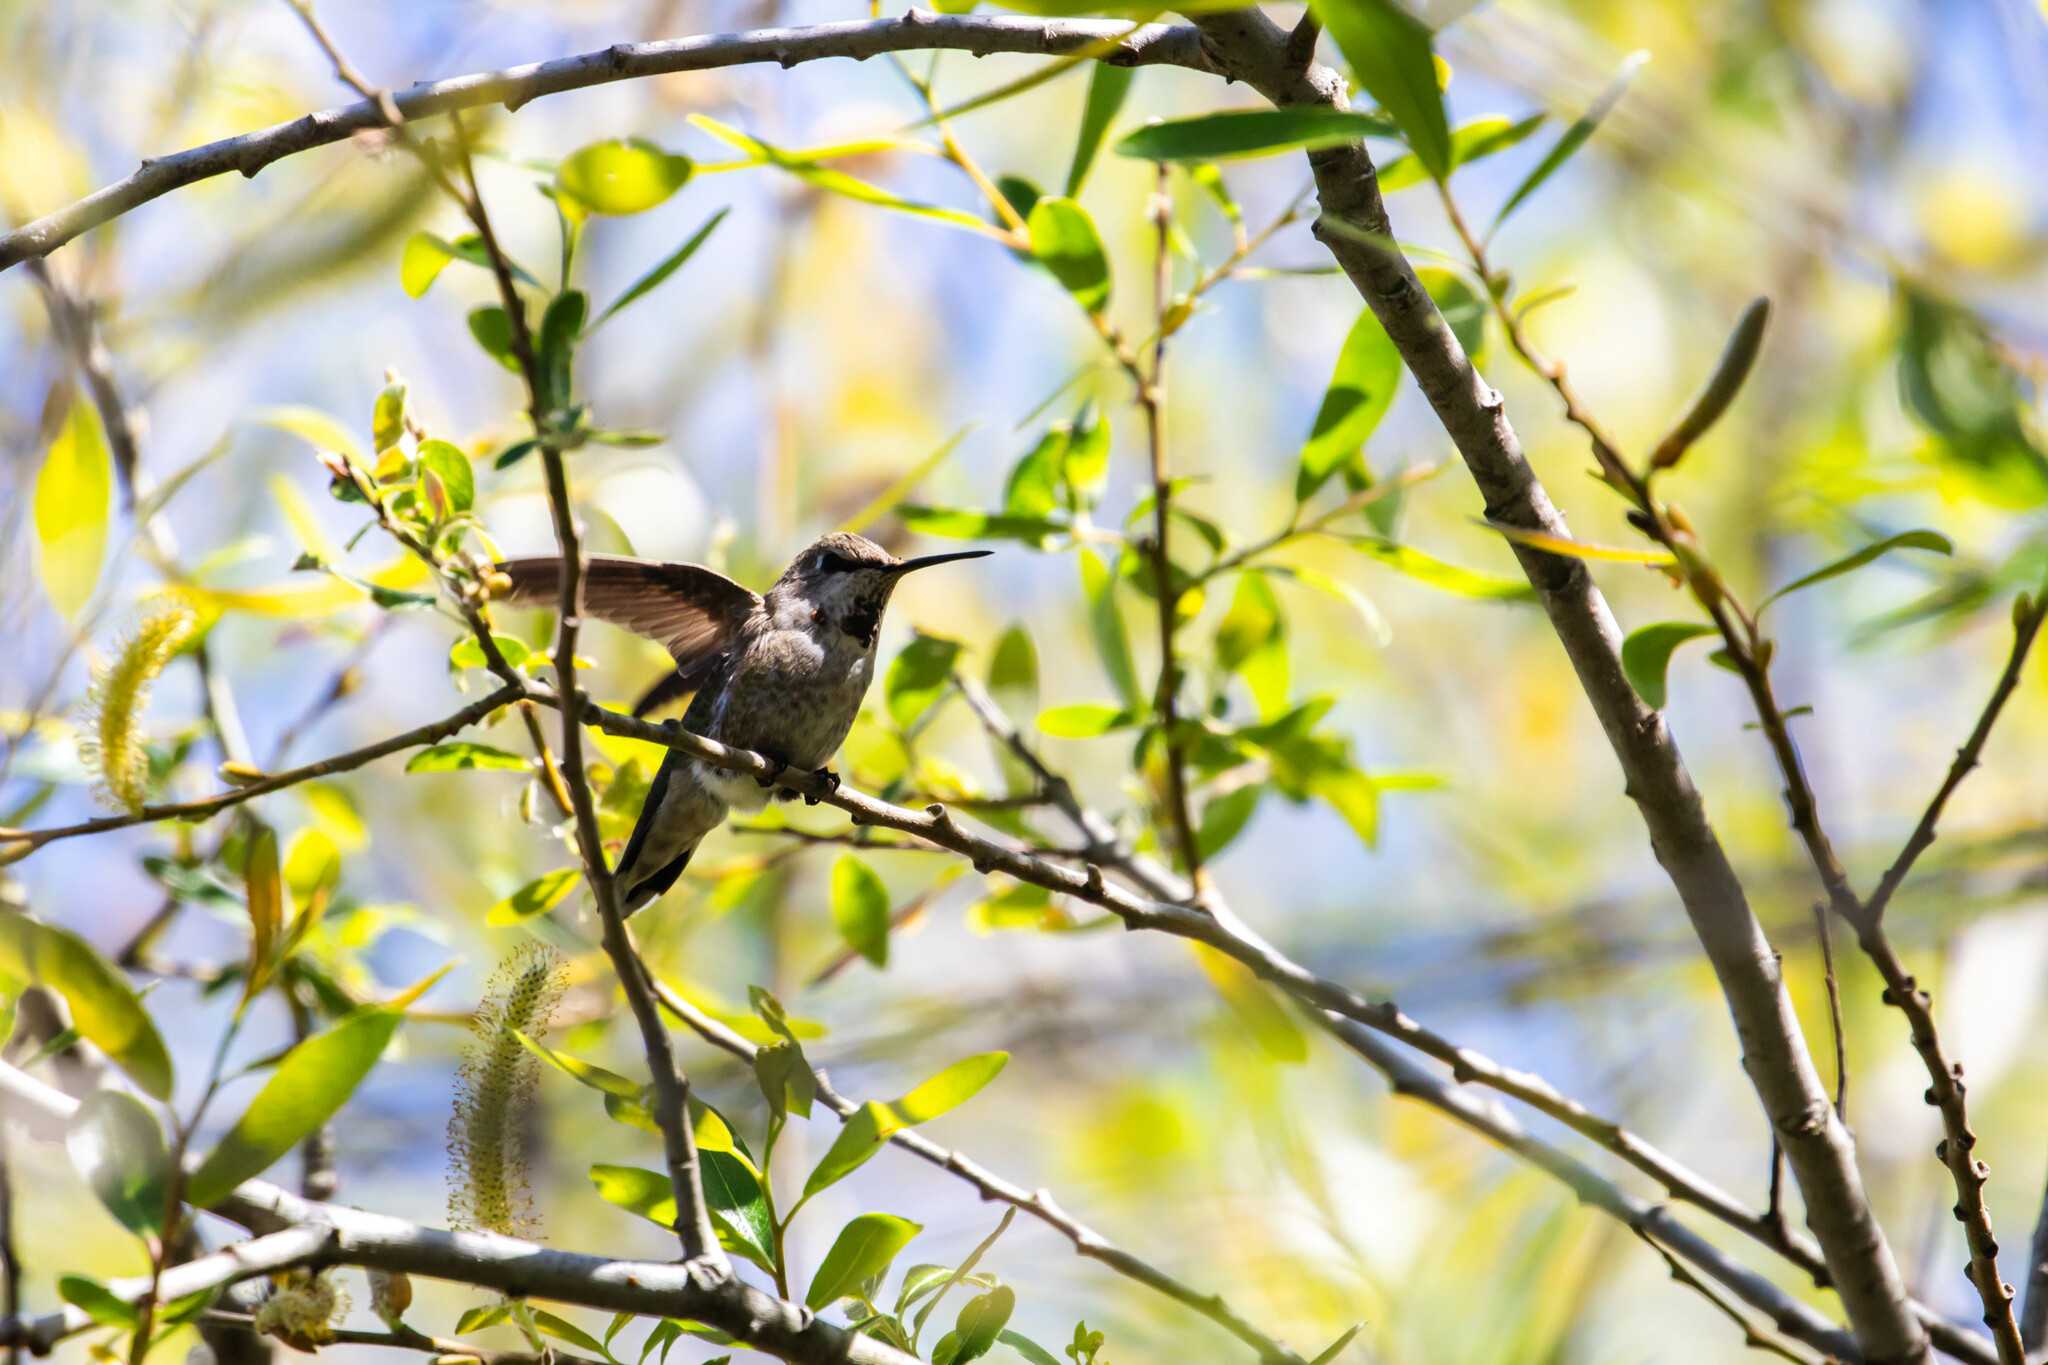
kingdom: Animalia
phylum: Chordata
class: Aves
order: Apodiformes
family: Trochilidae
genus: Calypte
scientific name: Calypte anna
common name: Anna's hummingbird
